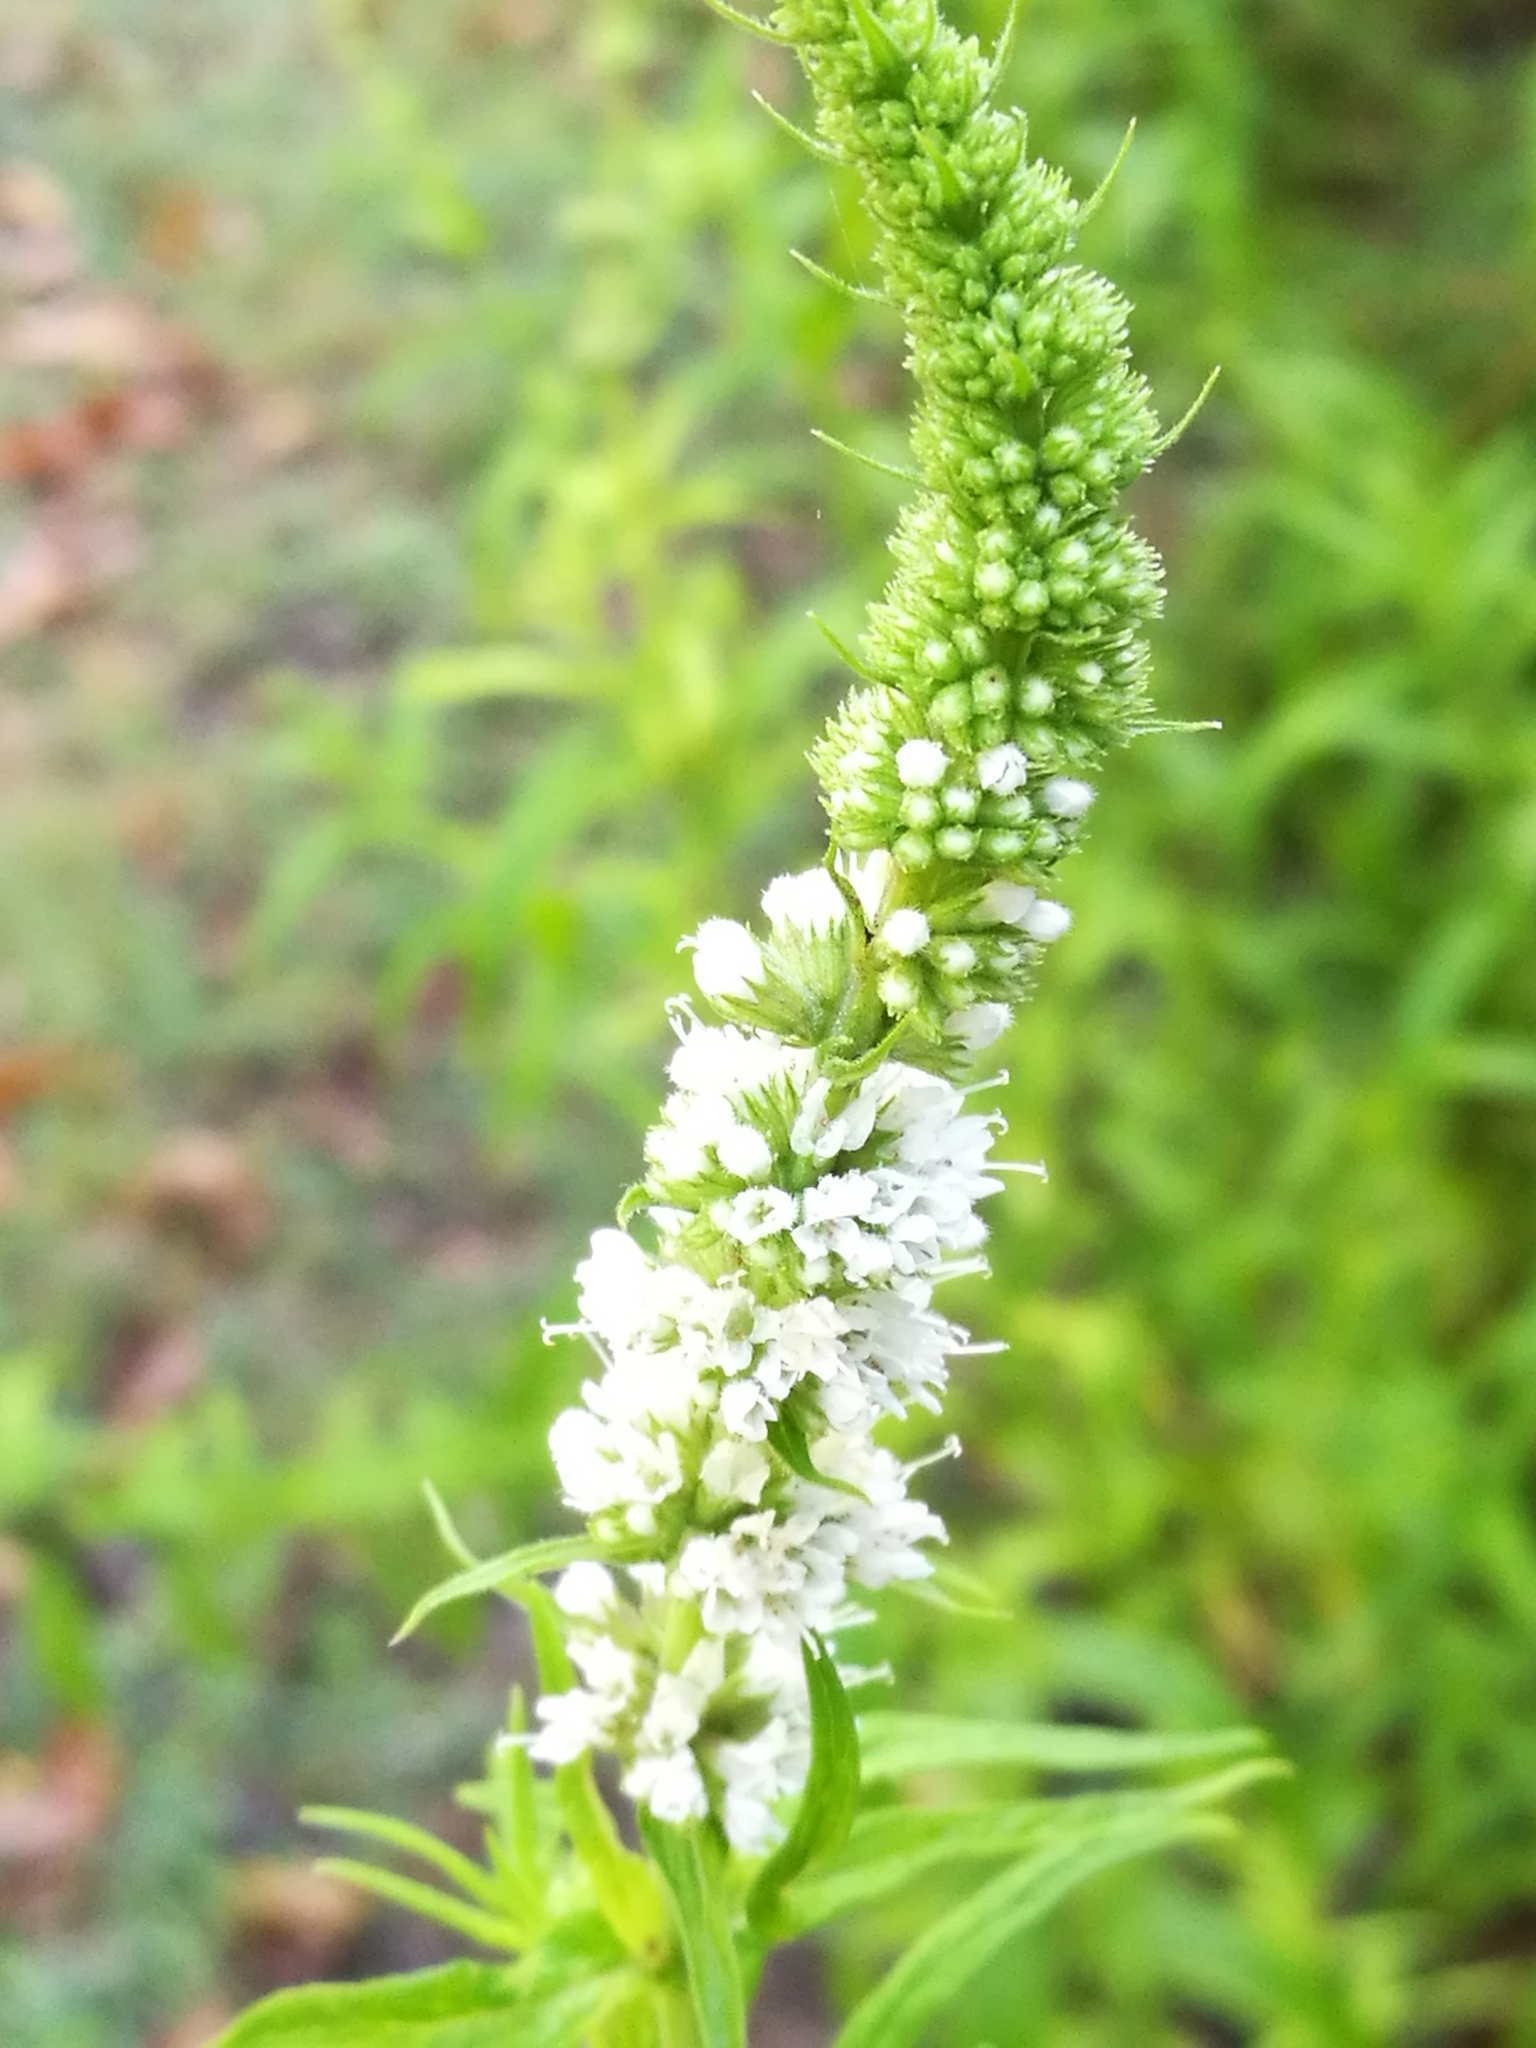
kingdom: Plantae
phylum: Tracheophyta
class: Magnoliopsida
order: Lamiales
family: Lamiaceae
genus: Mentha
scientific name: Mentha longifolia
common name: Horse mint
